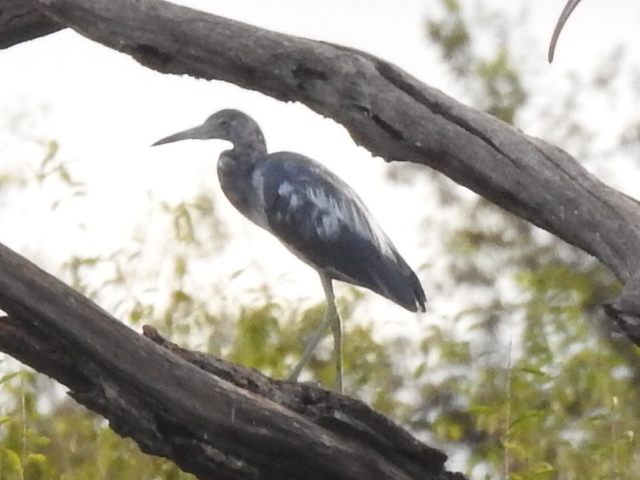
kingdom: Animalia
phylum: Chordata
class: Aves
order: Pelecaniformes
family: Ardeidae
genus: Egretta
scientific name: Egretta caerulea
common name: Little blue heron
